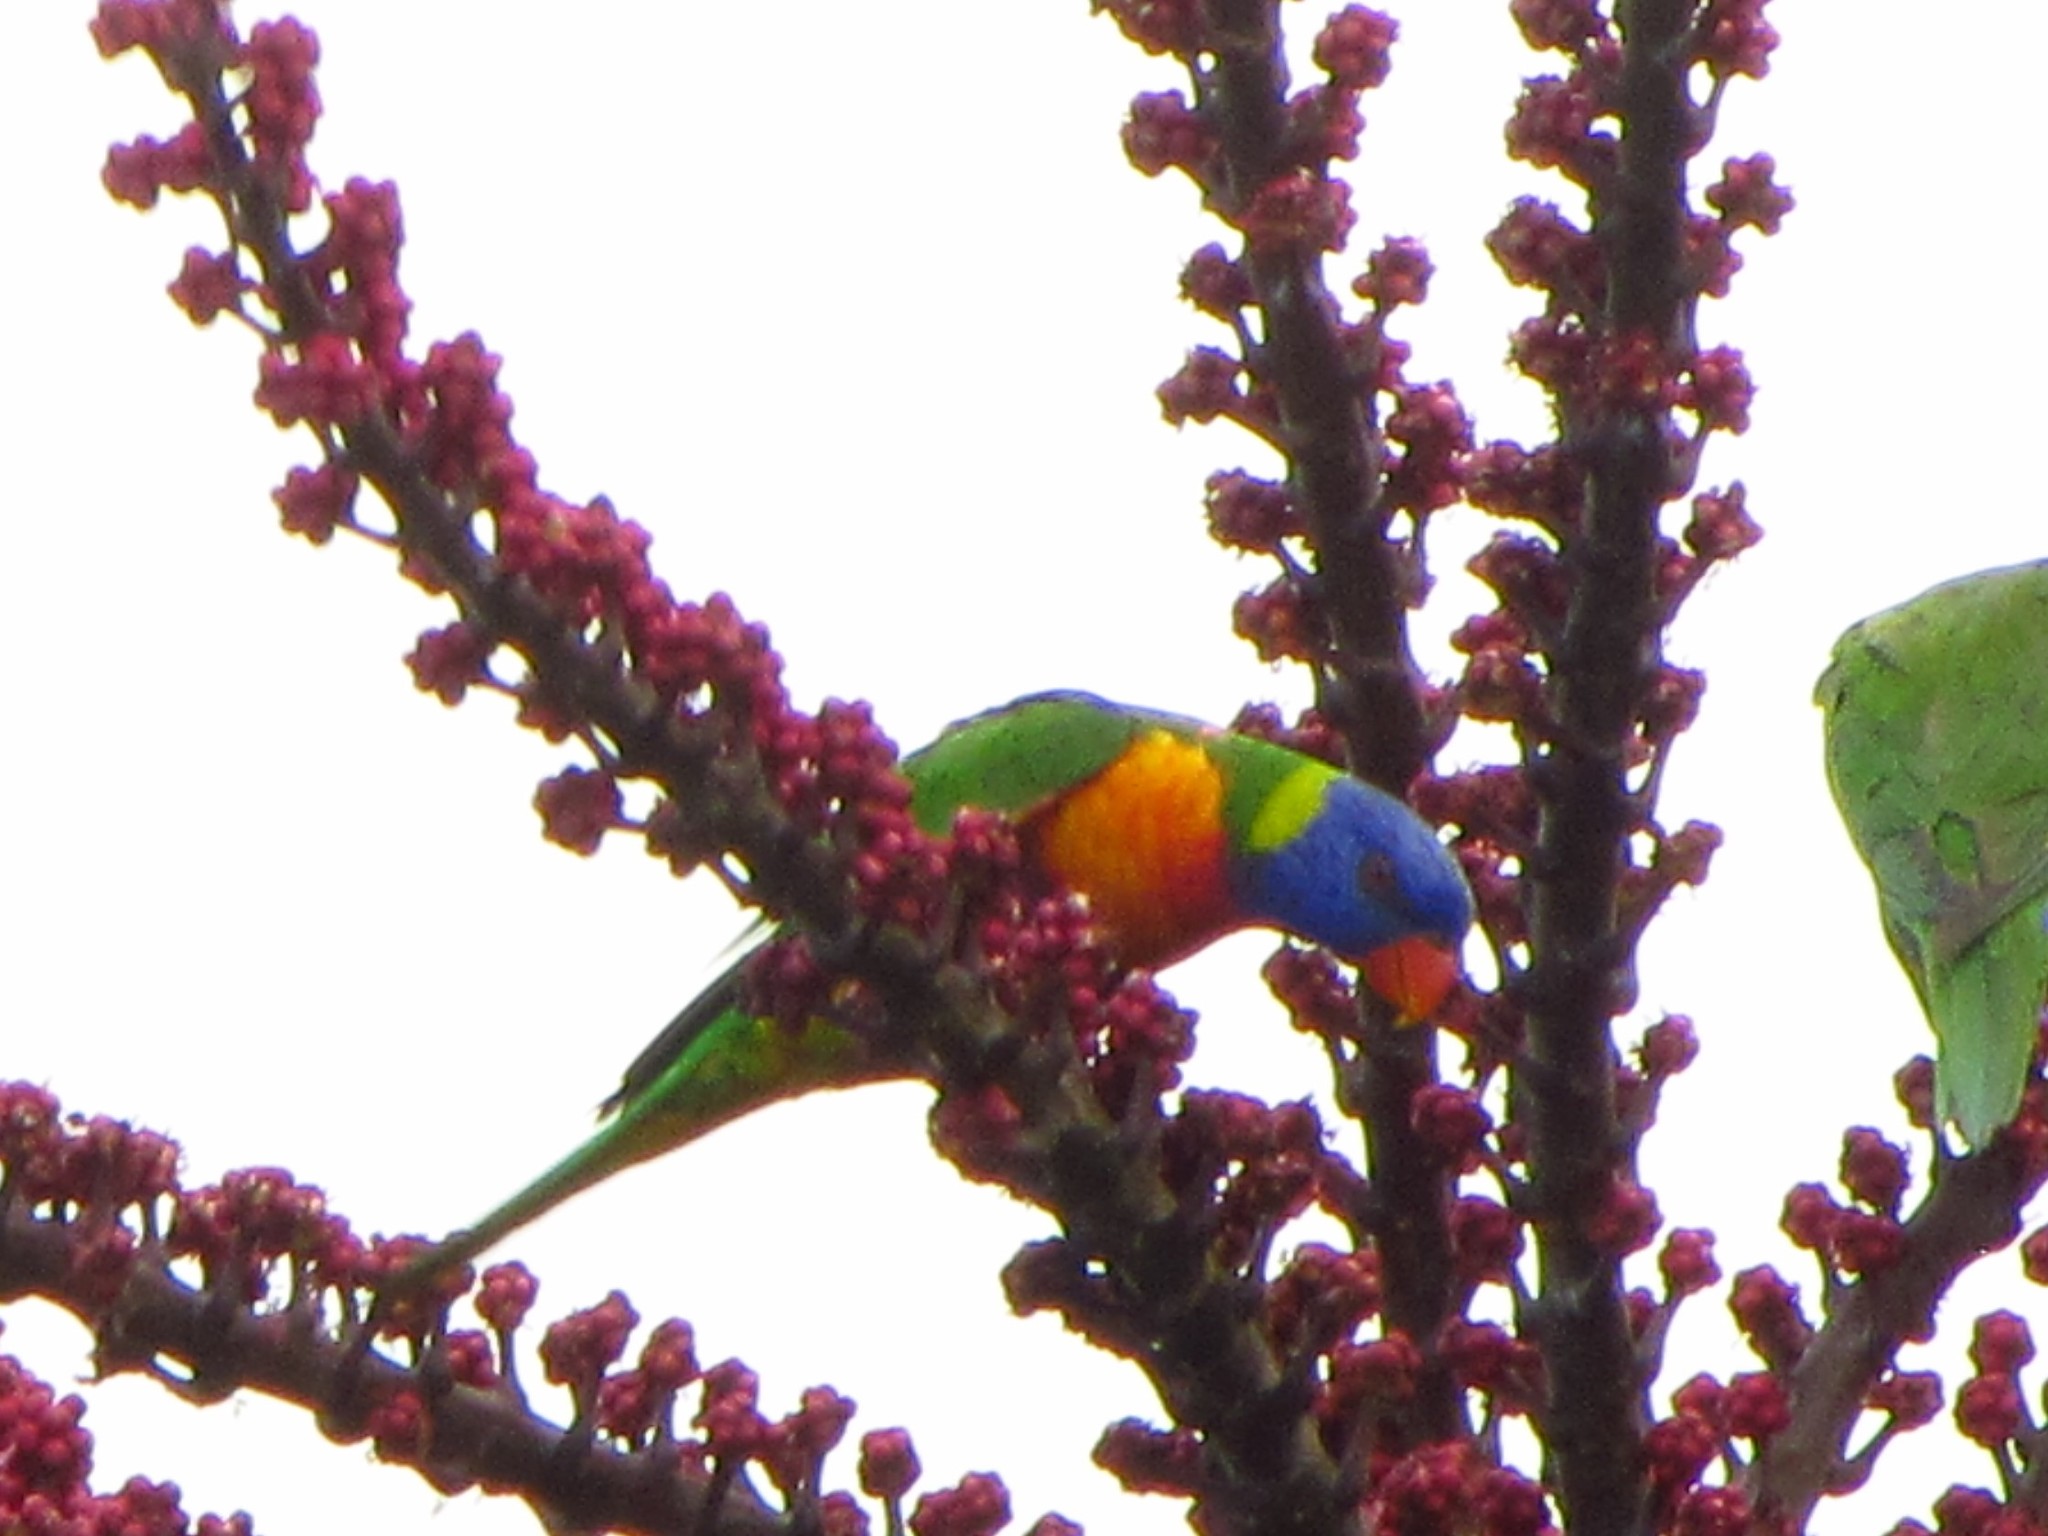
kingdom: Animalia
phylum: Chordata
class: Aves
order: Psittaciformes
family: Psittacidae
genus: Trichoglossus
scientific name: Trichoglossus haematodus
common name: Coconut lorikeet
